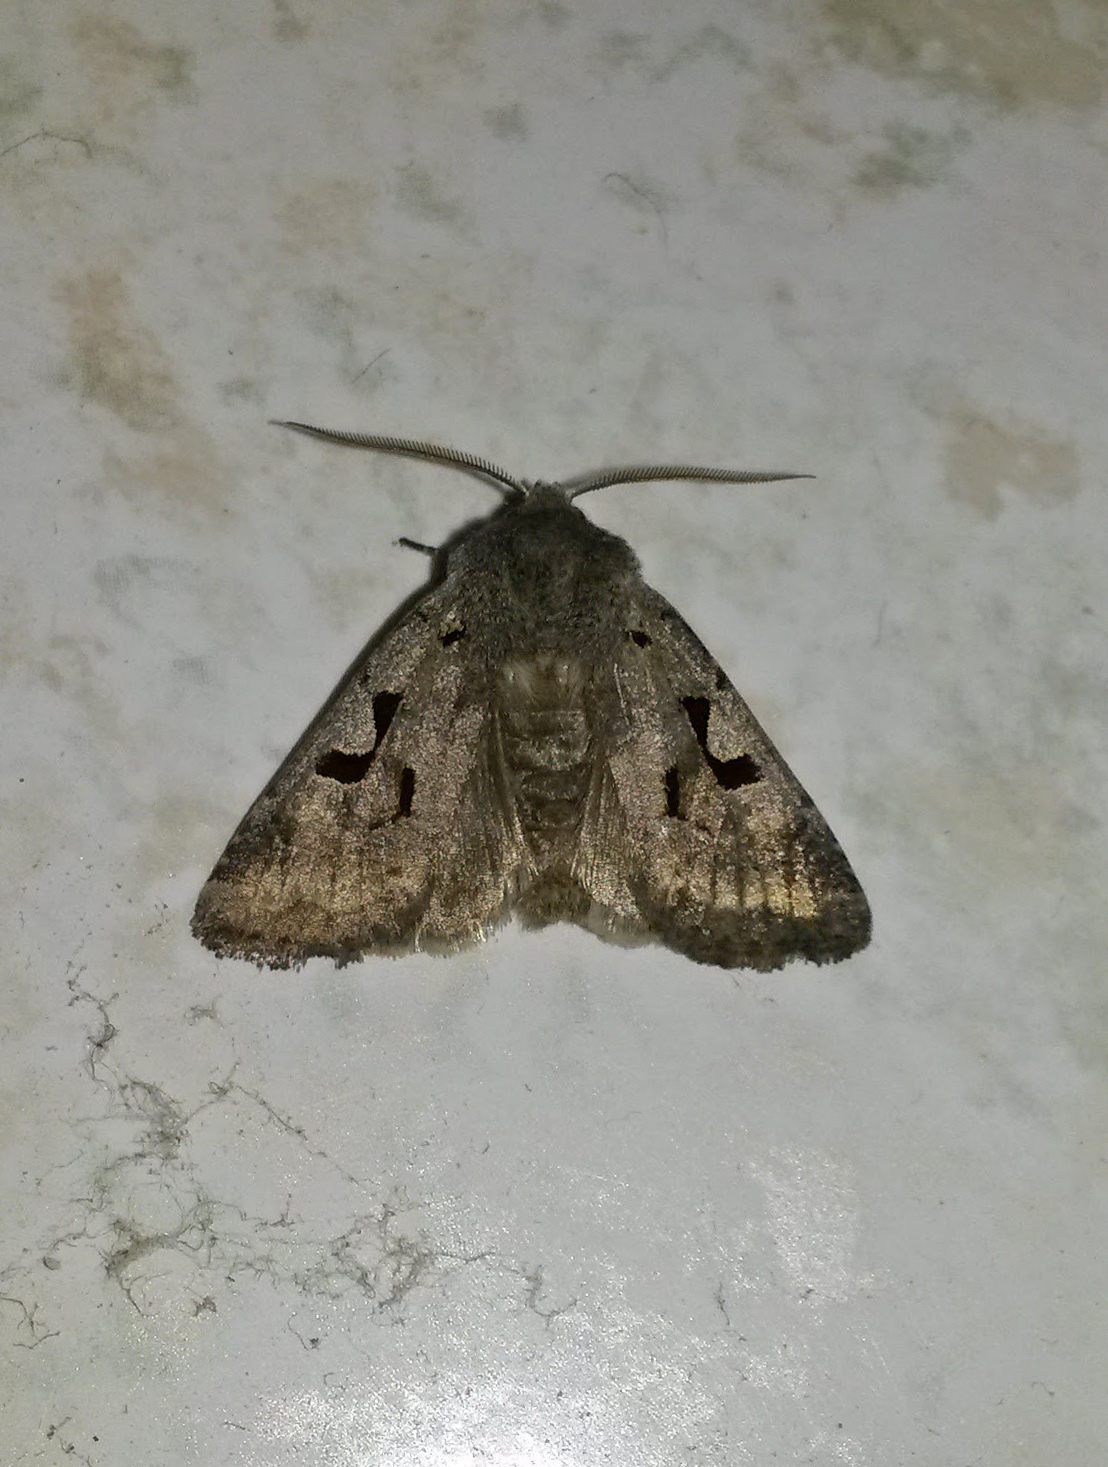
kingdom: Animalia
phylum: Arthropoda
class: Insecta
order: Lepidoptera
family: Noctuidae
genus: Orthosia
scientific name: Orthosia gothica
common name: Hebrew character
